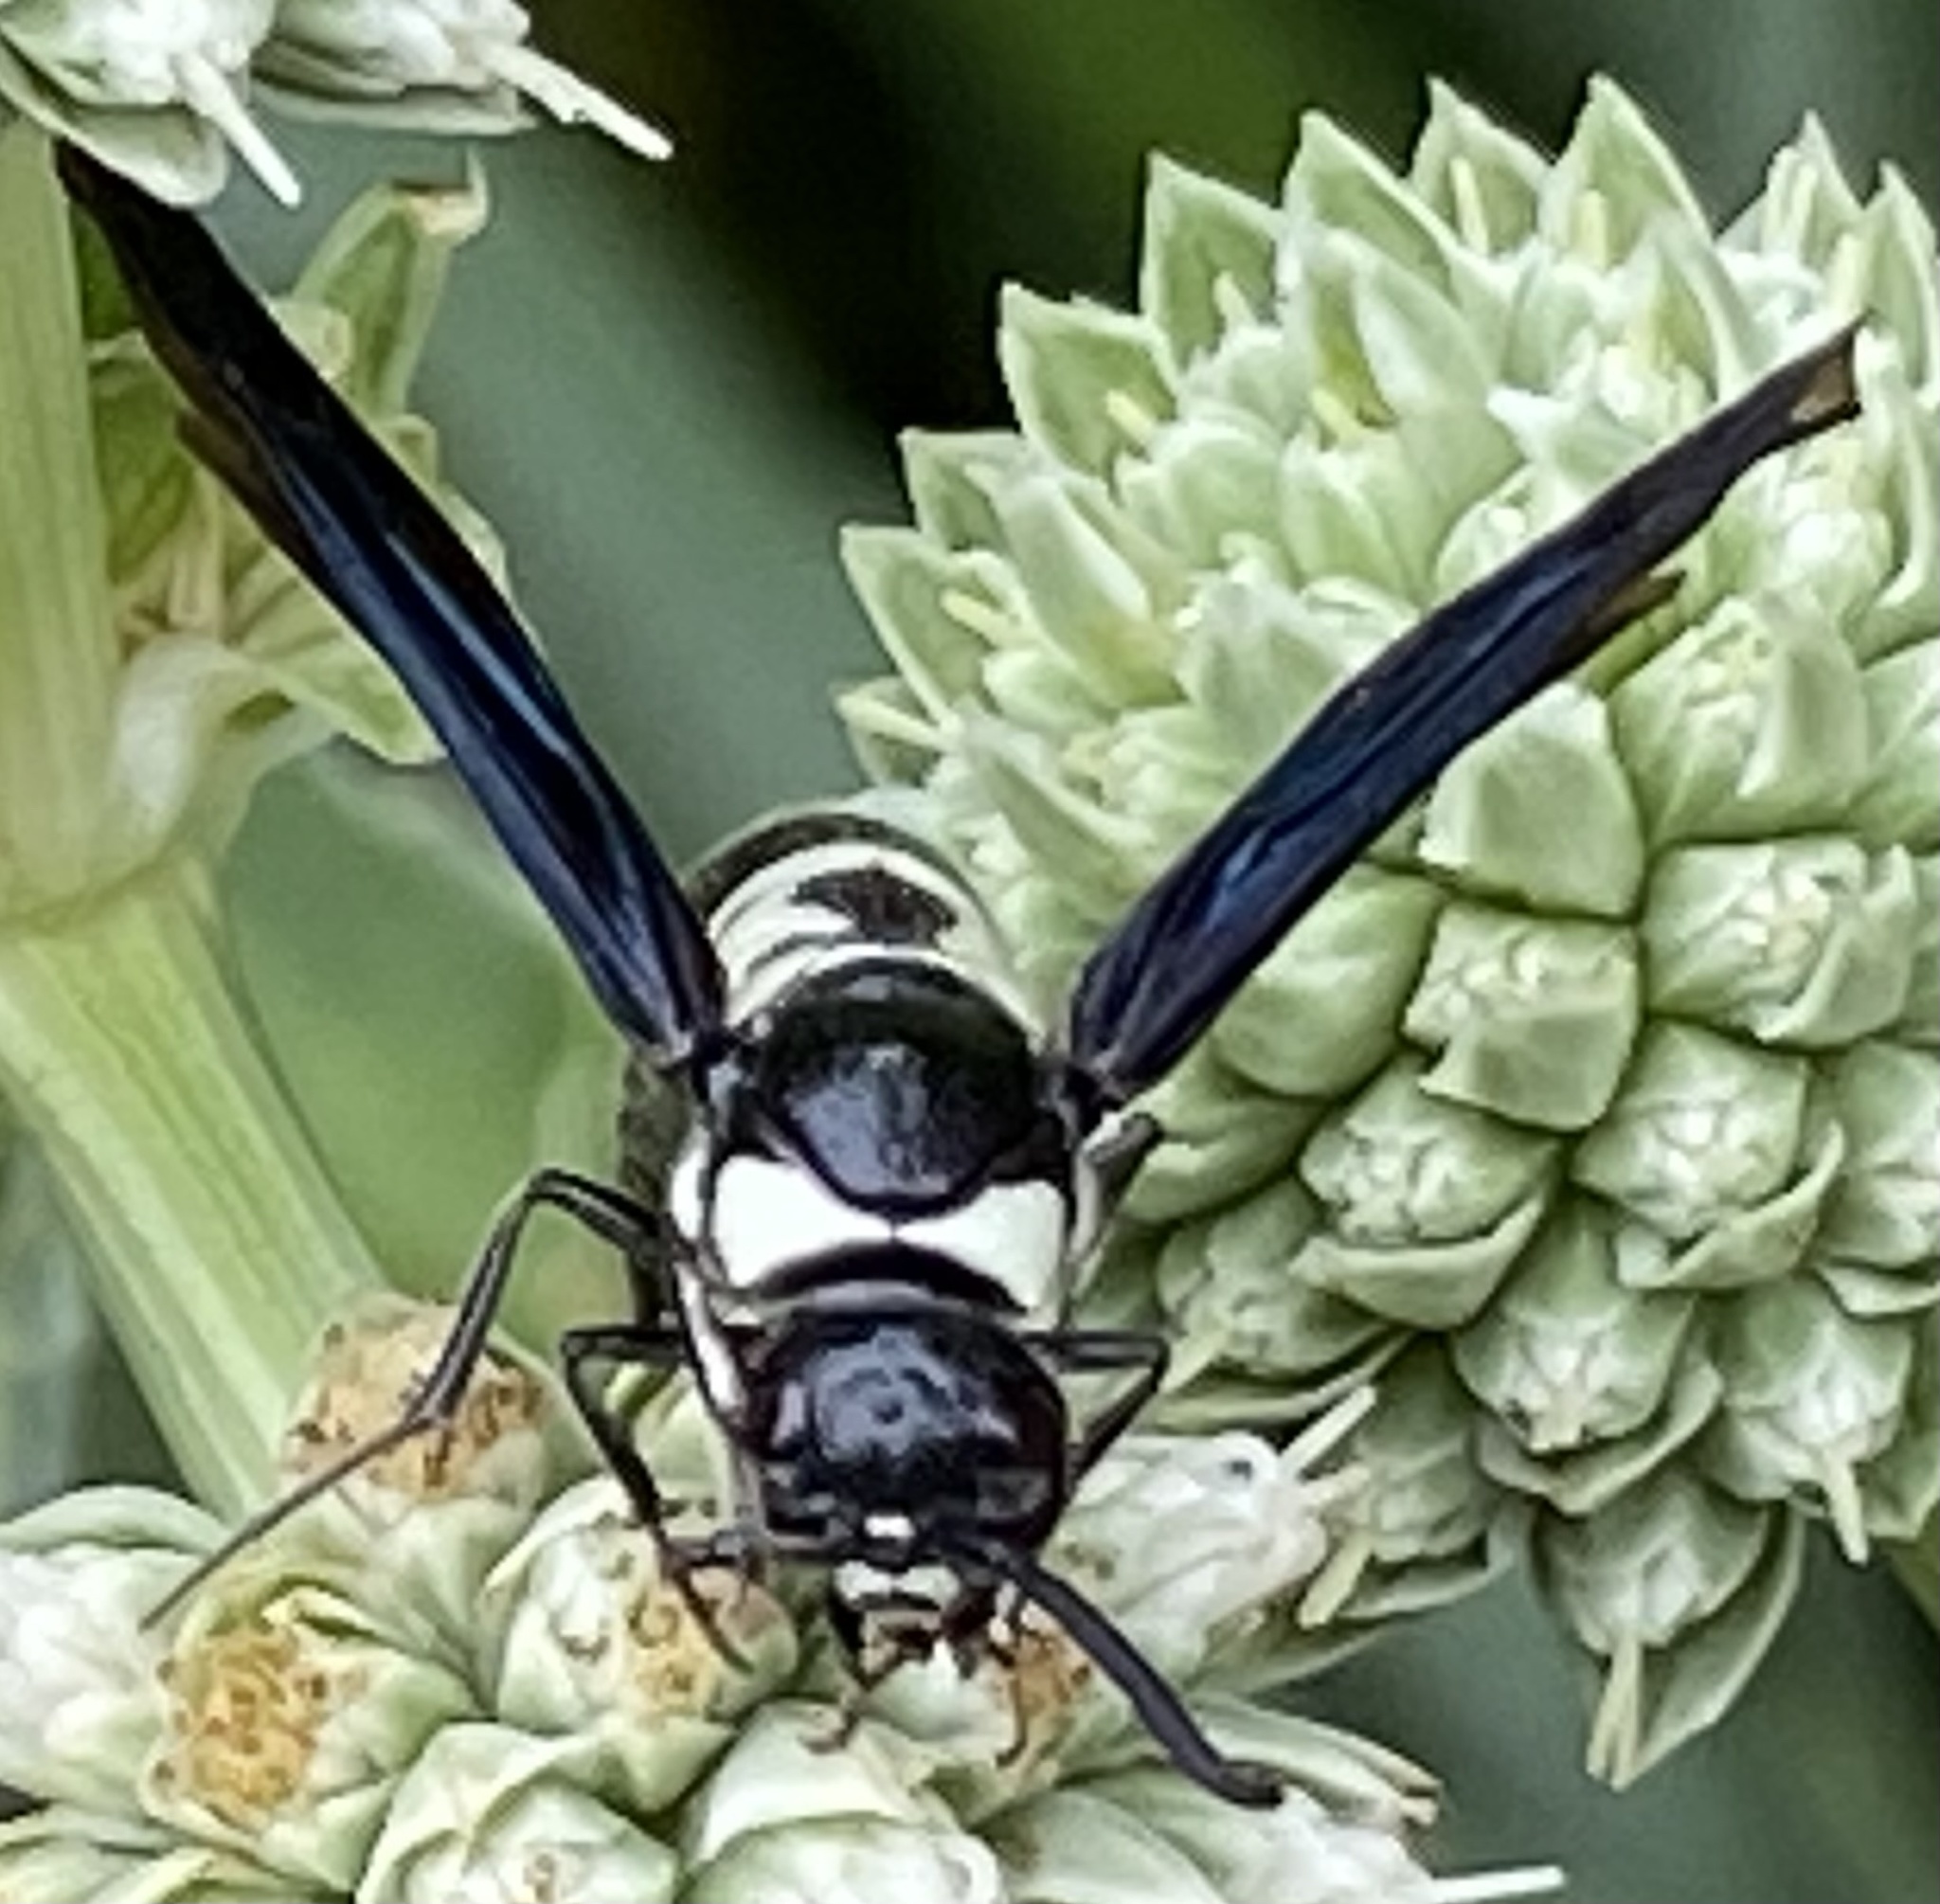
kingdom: Animalia
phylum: Arthropoda
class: Insecta
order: Hymenoptera
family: Eumenidae
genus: Pseudodynerus
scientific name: Pseudodynerus quadrisectus
